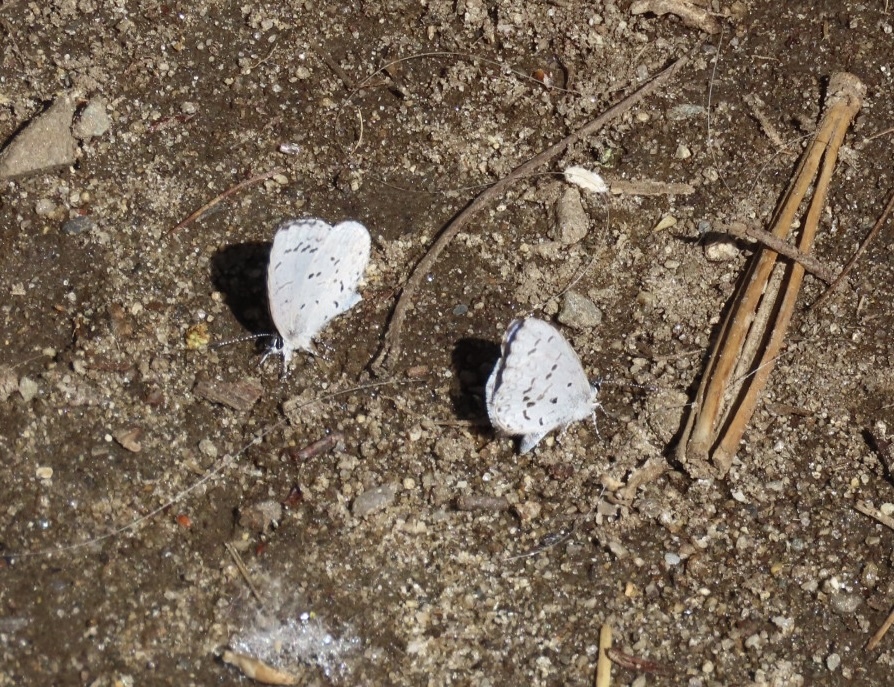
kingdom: Animalia
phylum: Arthropoda
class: Insecta
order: Lepidoptera
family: Lycaenidae
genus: Celastrina
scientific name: Celastrina ladon
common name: Spring azure
